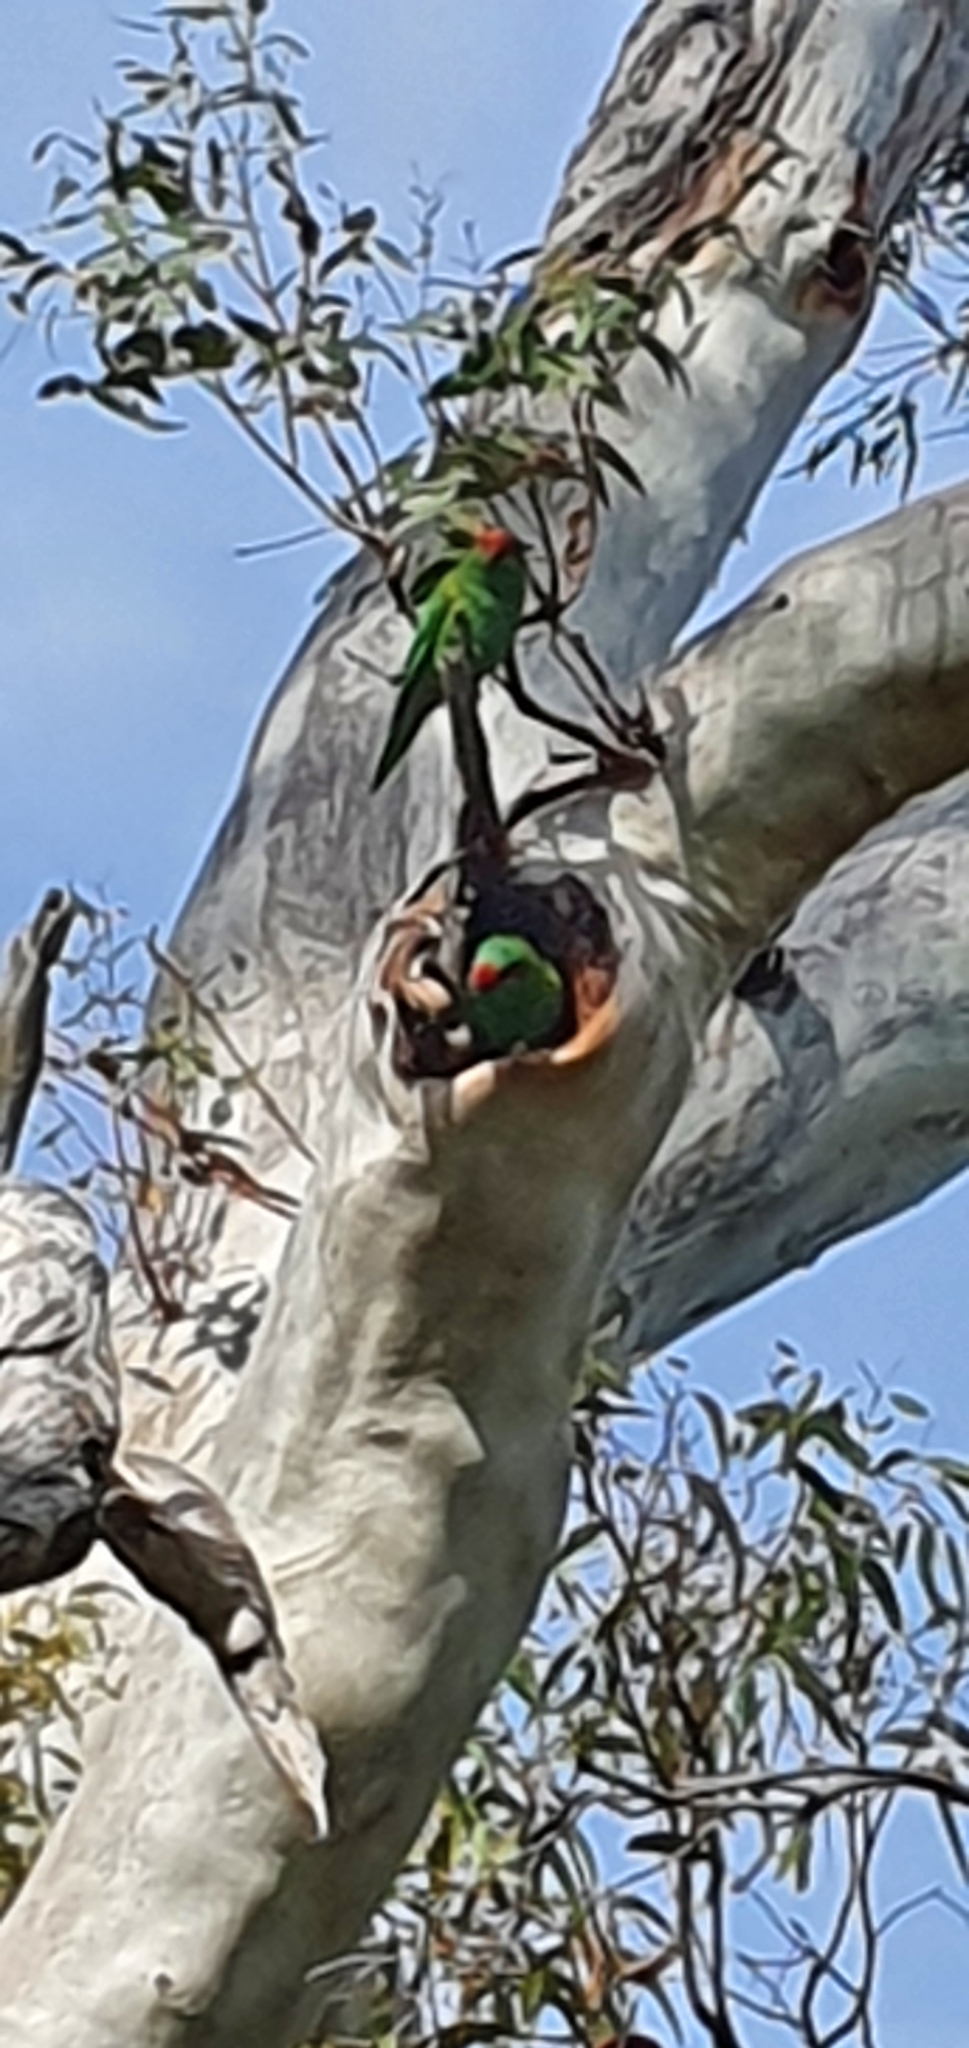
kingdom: Animalia
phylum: Chordata
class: Aves
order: Psittaciformes
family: Psittacidae
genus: Glossopsitta
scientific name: Glossopsitta concinna
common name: Musk lorikeet
